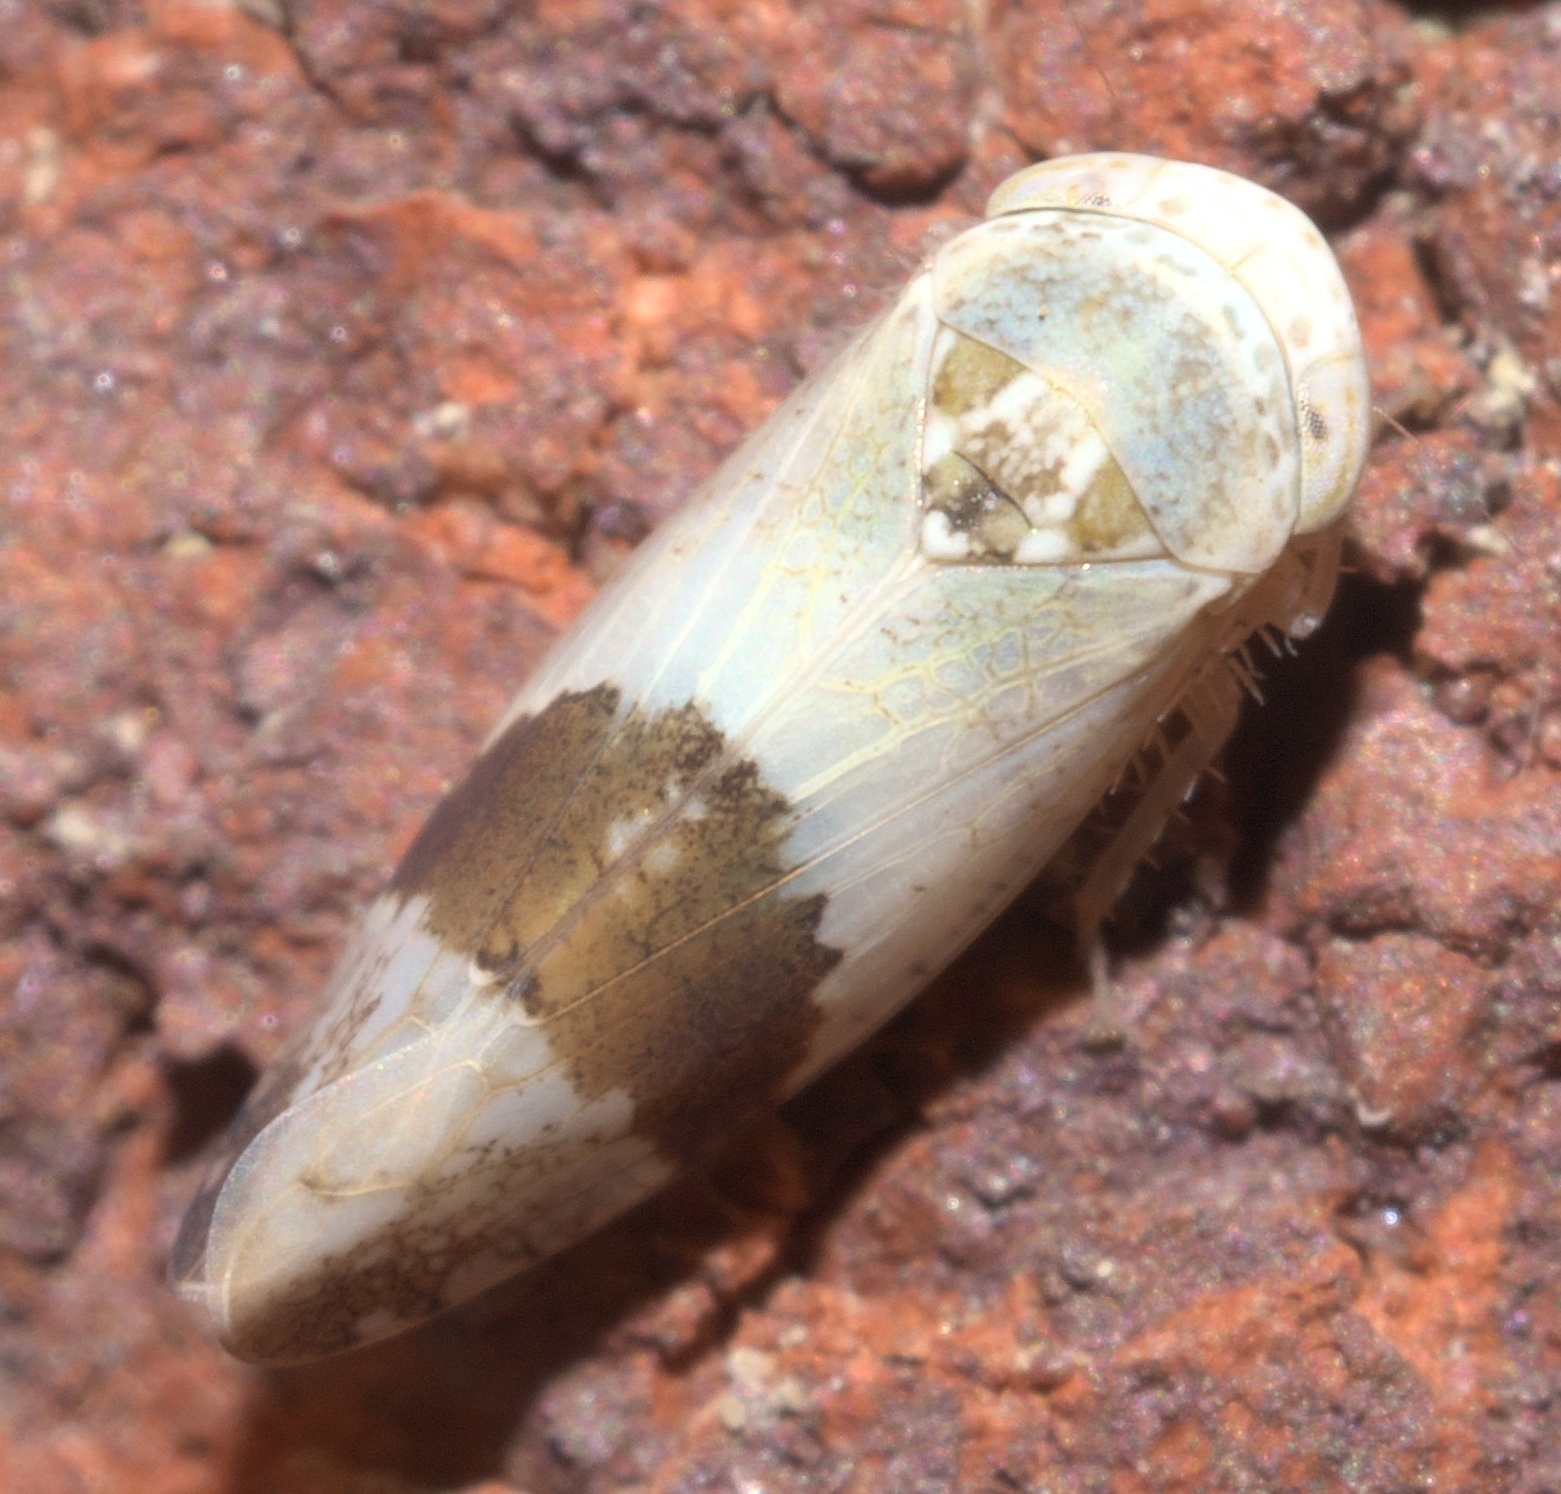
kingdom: Animalia
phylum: Arthropoda
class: Insecta
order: Hemiptera
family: Cicadellidae
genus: Norvellina
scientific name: Norvellina seminuda
